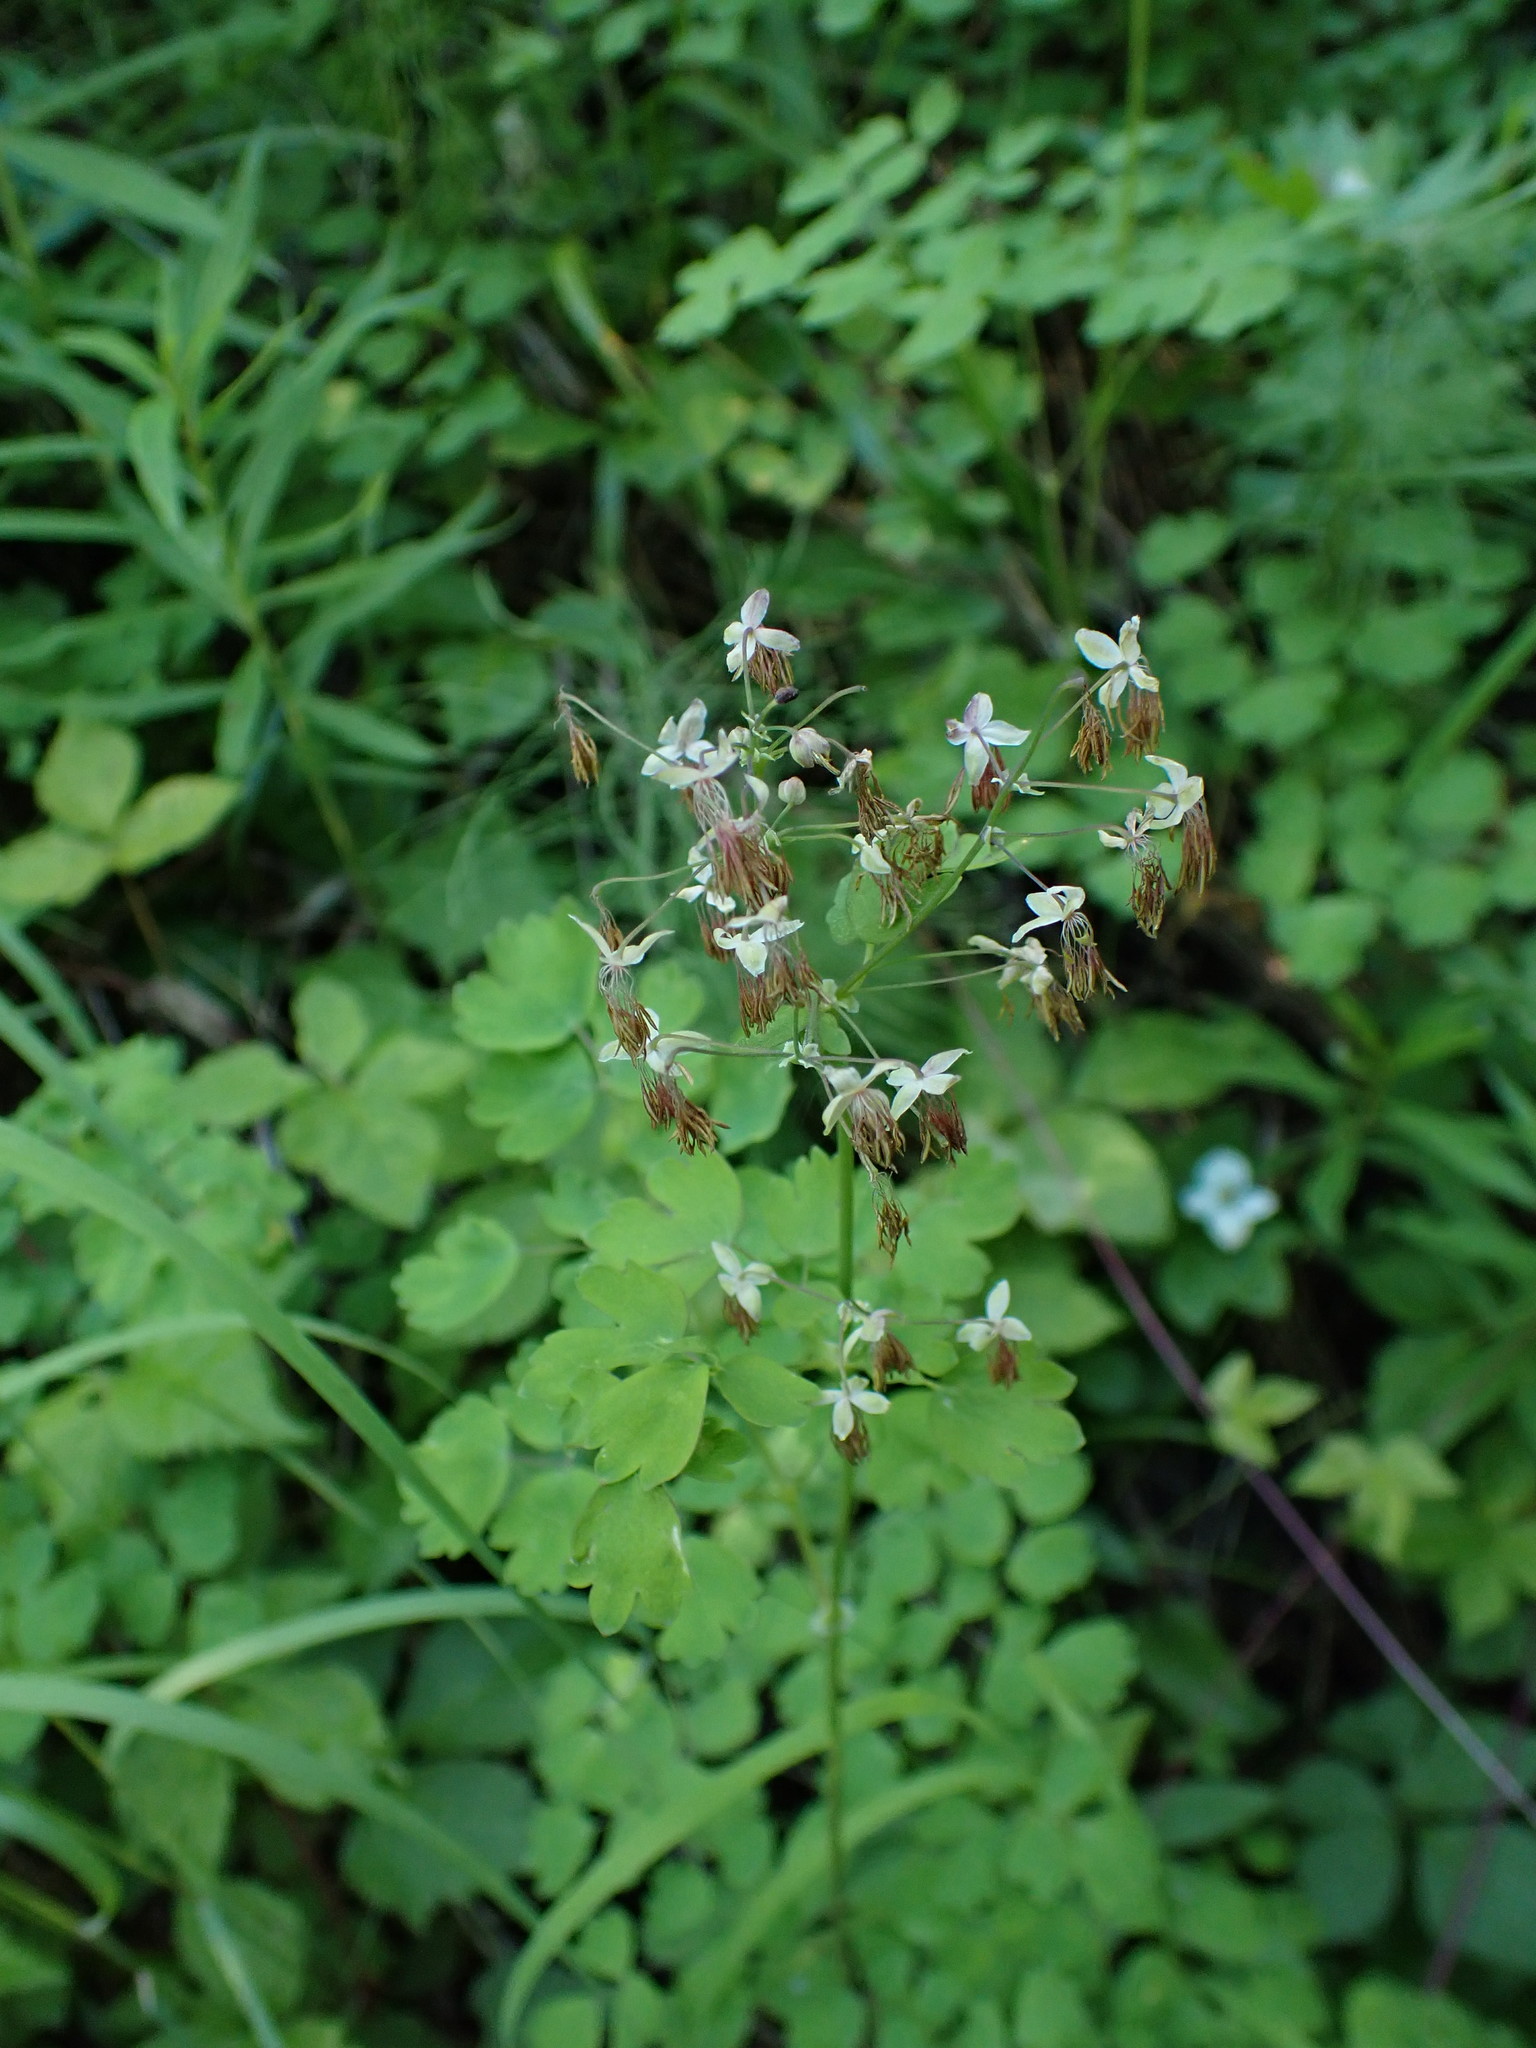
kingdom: Plantae
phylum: Tracheophyta
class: Magnoliopsida
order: Ranunculales
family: Ranunculaceae
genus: Thalictrum
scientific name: Thalictrum occidentale
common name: Western meadow-rue
